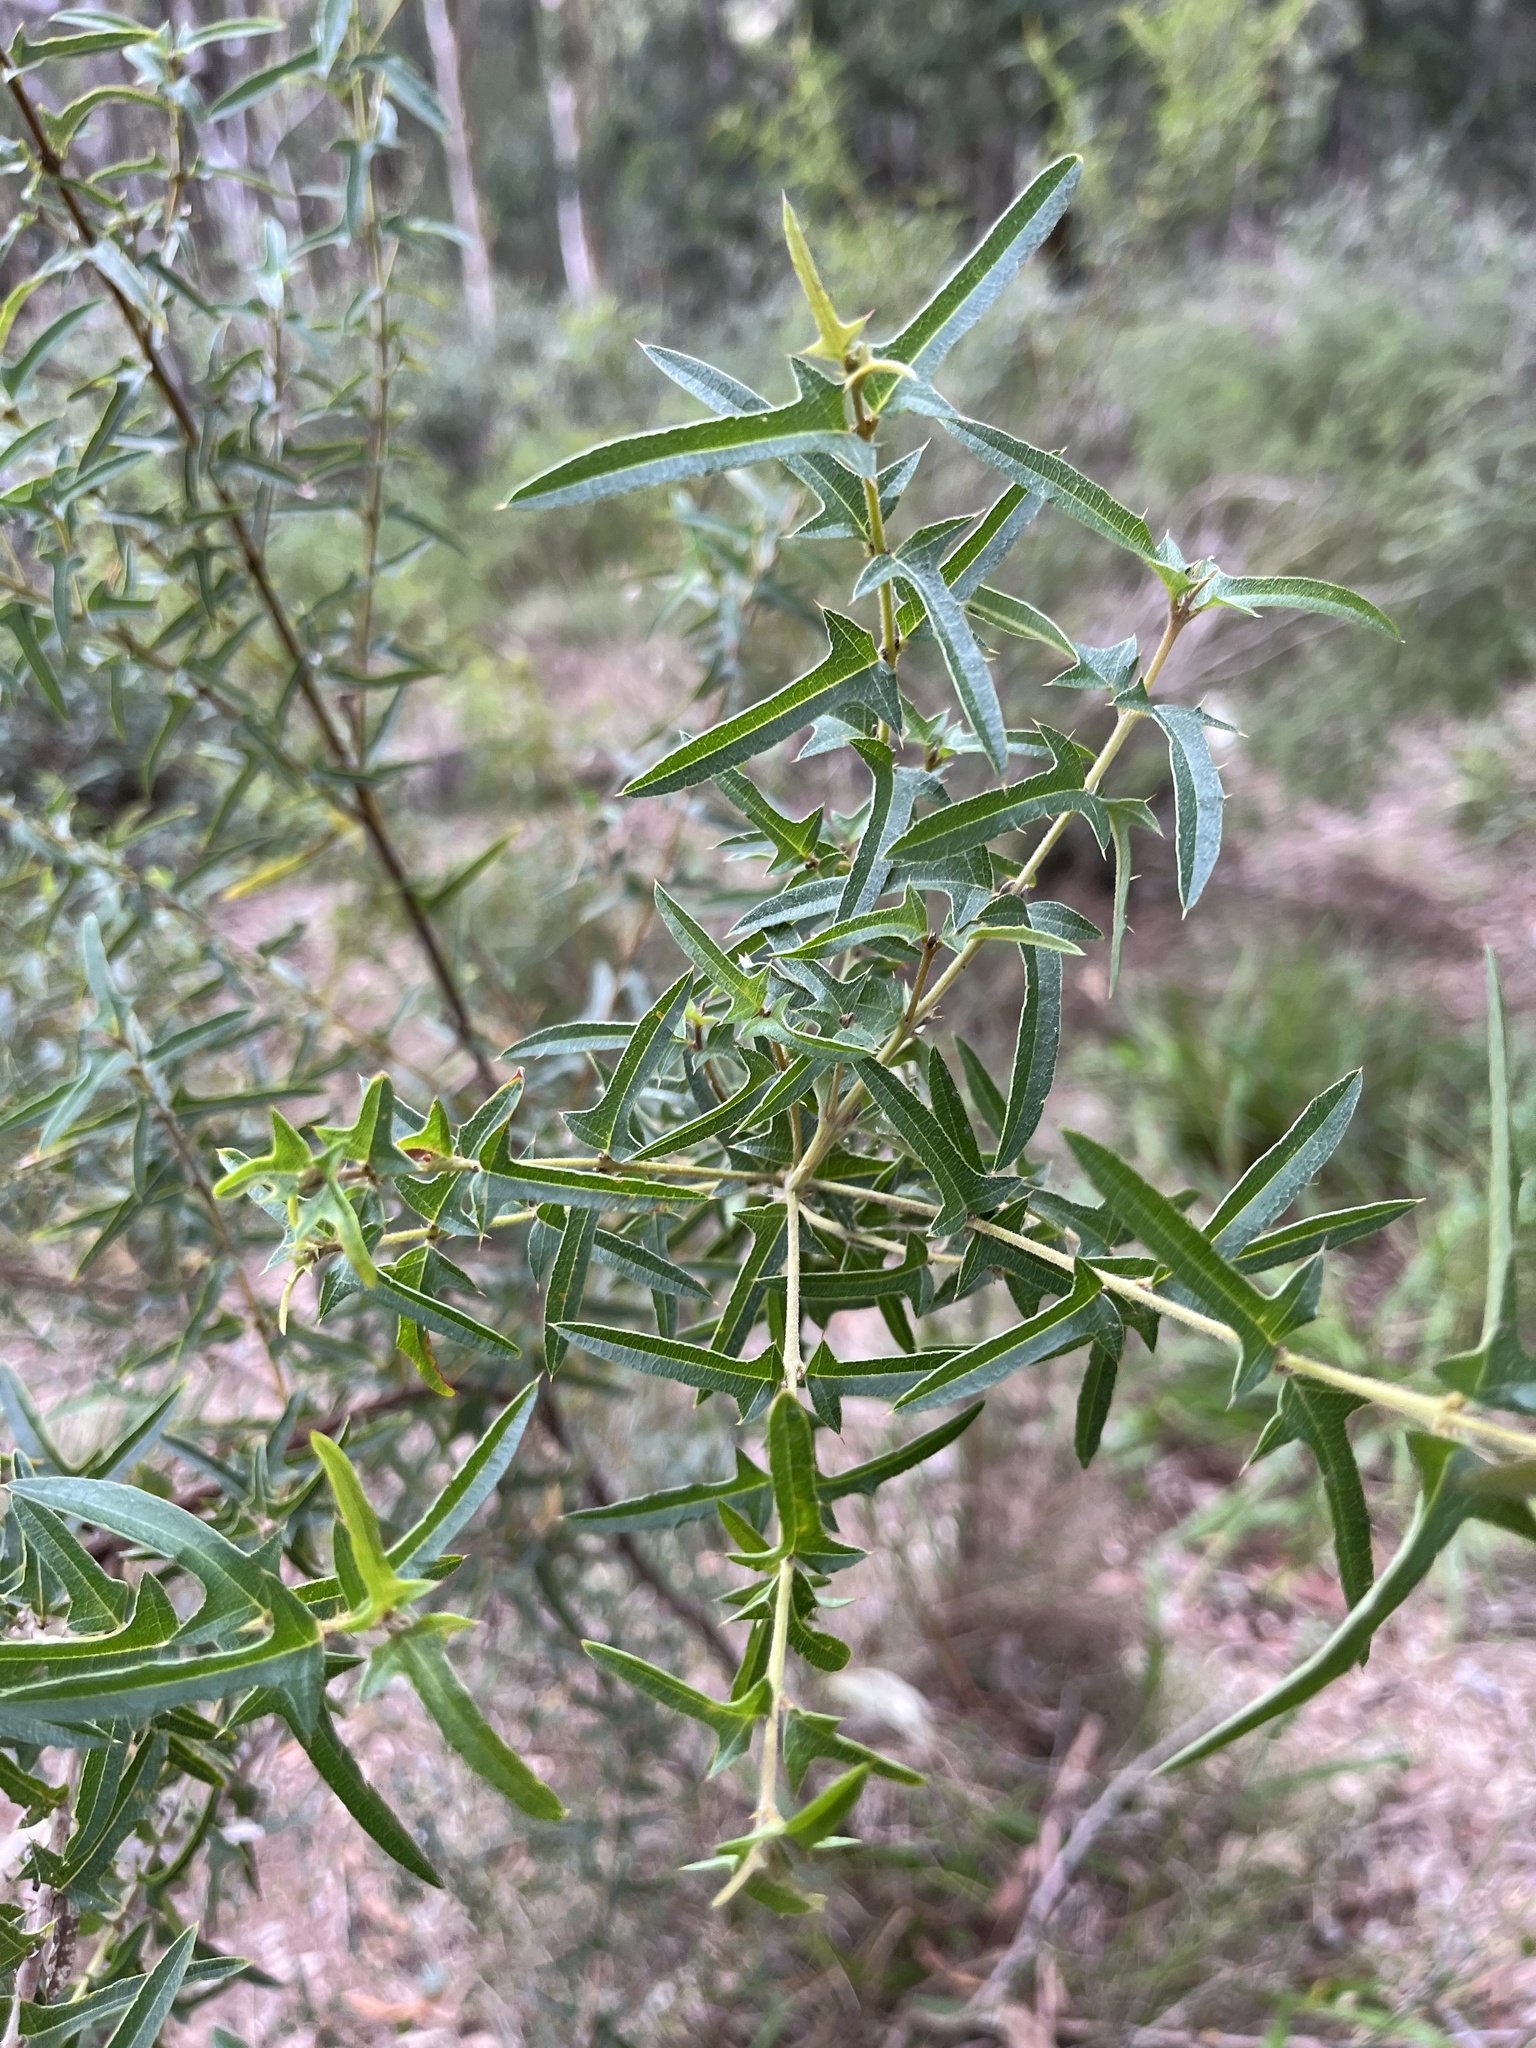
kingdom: Plantae
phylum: Tracheophyta
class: Magnoliopsida
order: Fabales
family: Fabaceae
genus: Podolobium
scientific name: Podolobium ilicifolium
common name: Native holly
